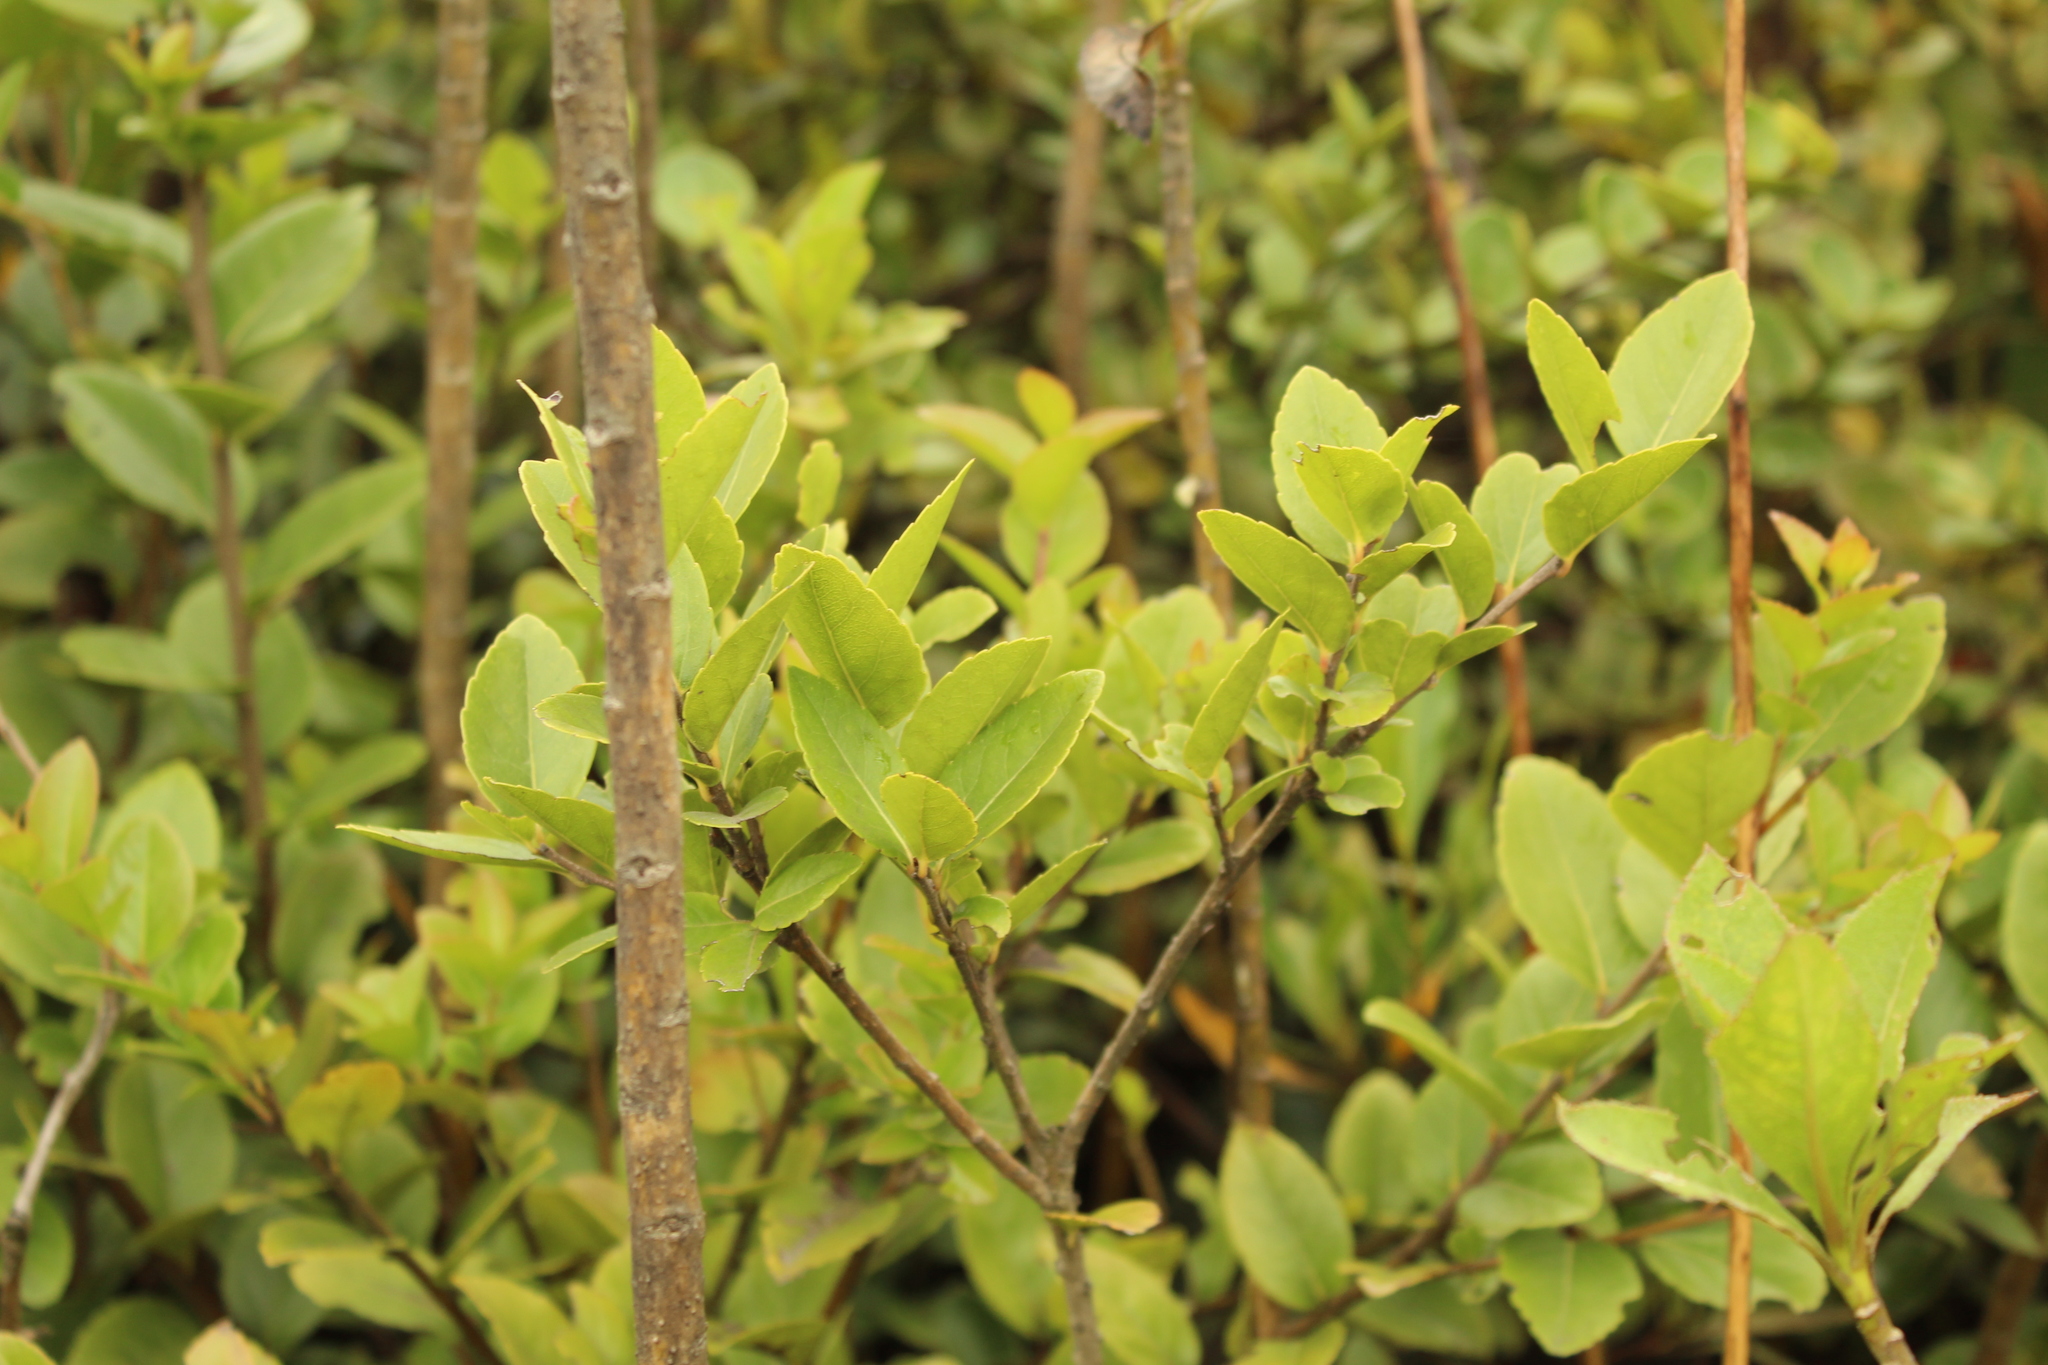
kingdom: Plantae
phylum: Tracheophyta
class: Magnoliopsida
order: Malpighiales
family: Salicaceae
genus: Xylosma
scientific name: Xylosma spiculifera
